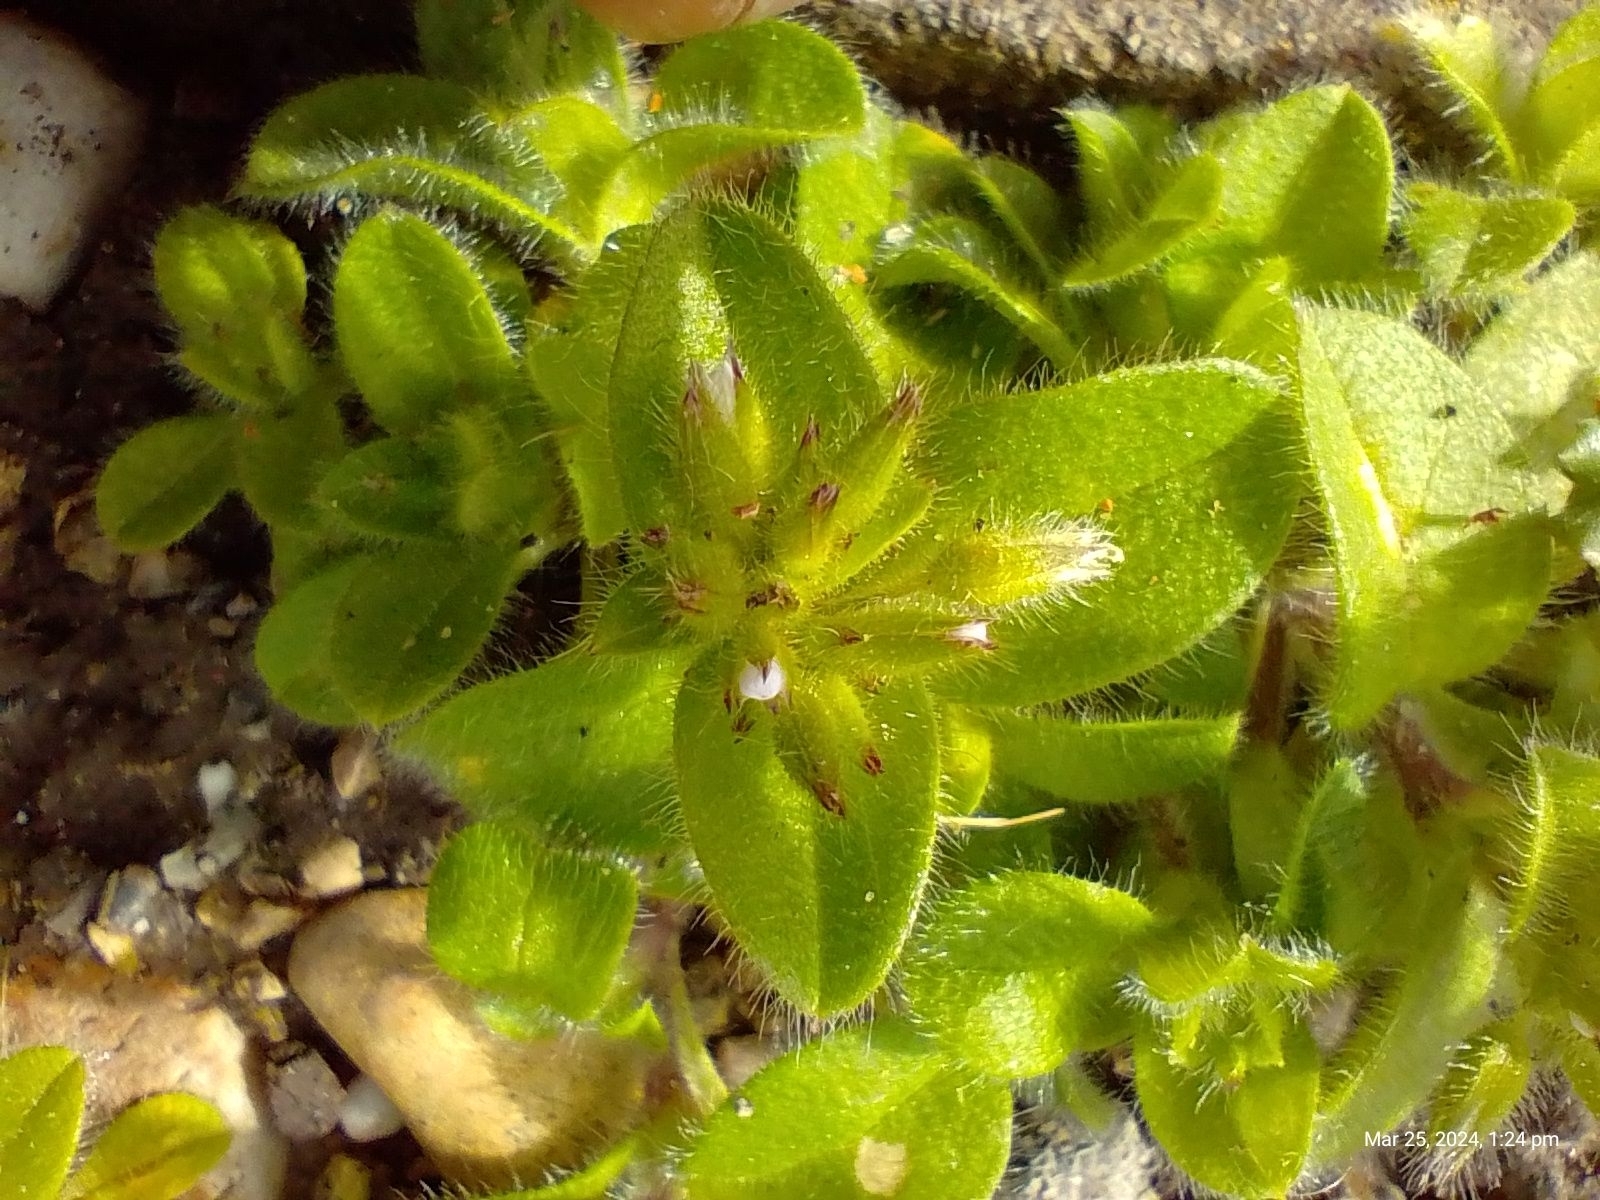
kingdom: Plantae
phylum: Tracheophyta
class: Magnoliopsida
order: Caryophyllales
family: Caryophyllaceae
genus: Cerastium
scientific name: Cerastium glomeratum
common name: Sticky chickweed
